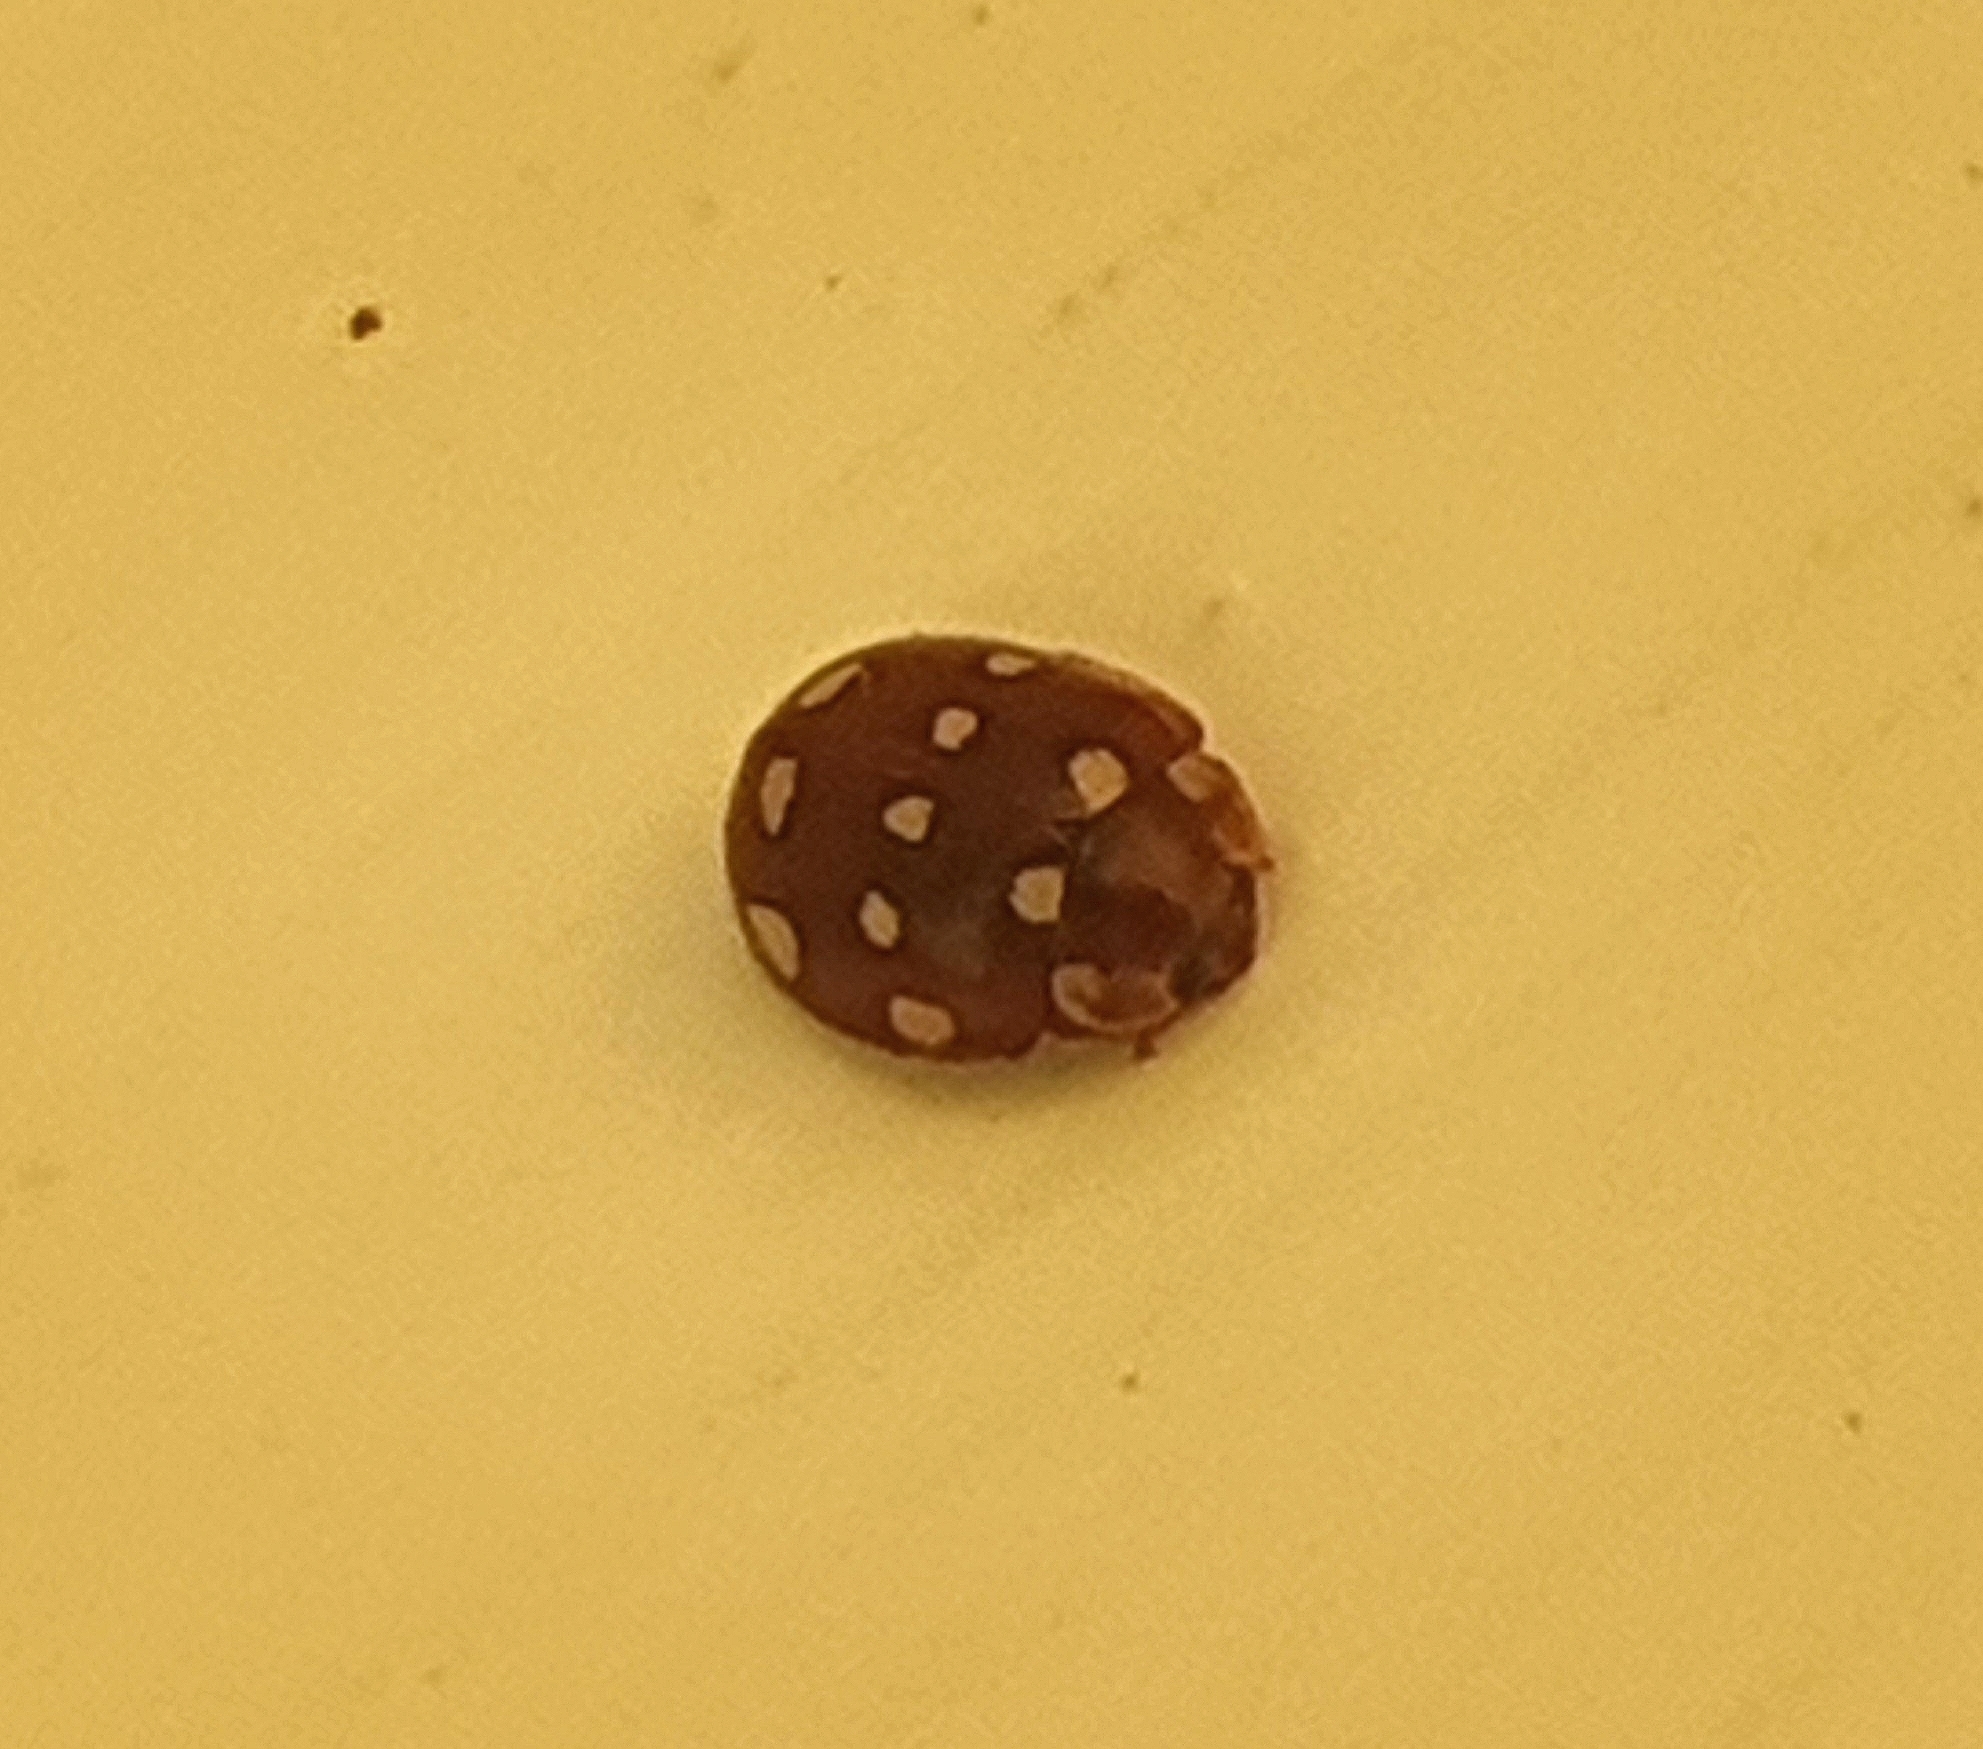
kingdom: Animalia
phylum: Arthropoda
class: Insecta
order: Coleoptera
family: Coccinellidae
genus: Calvia
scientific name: Calvia quatuordecimguttata
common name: Cream-spot ladybird
